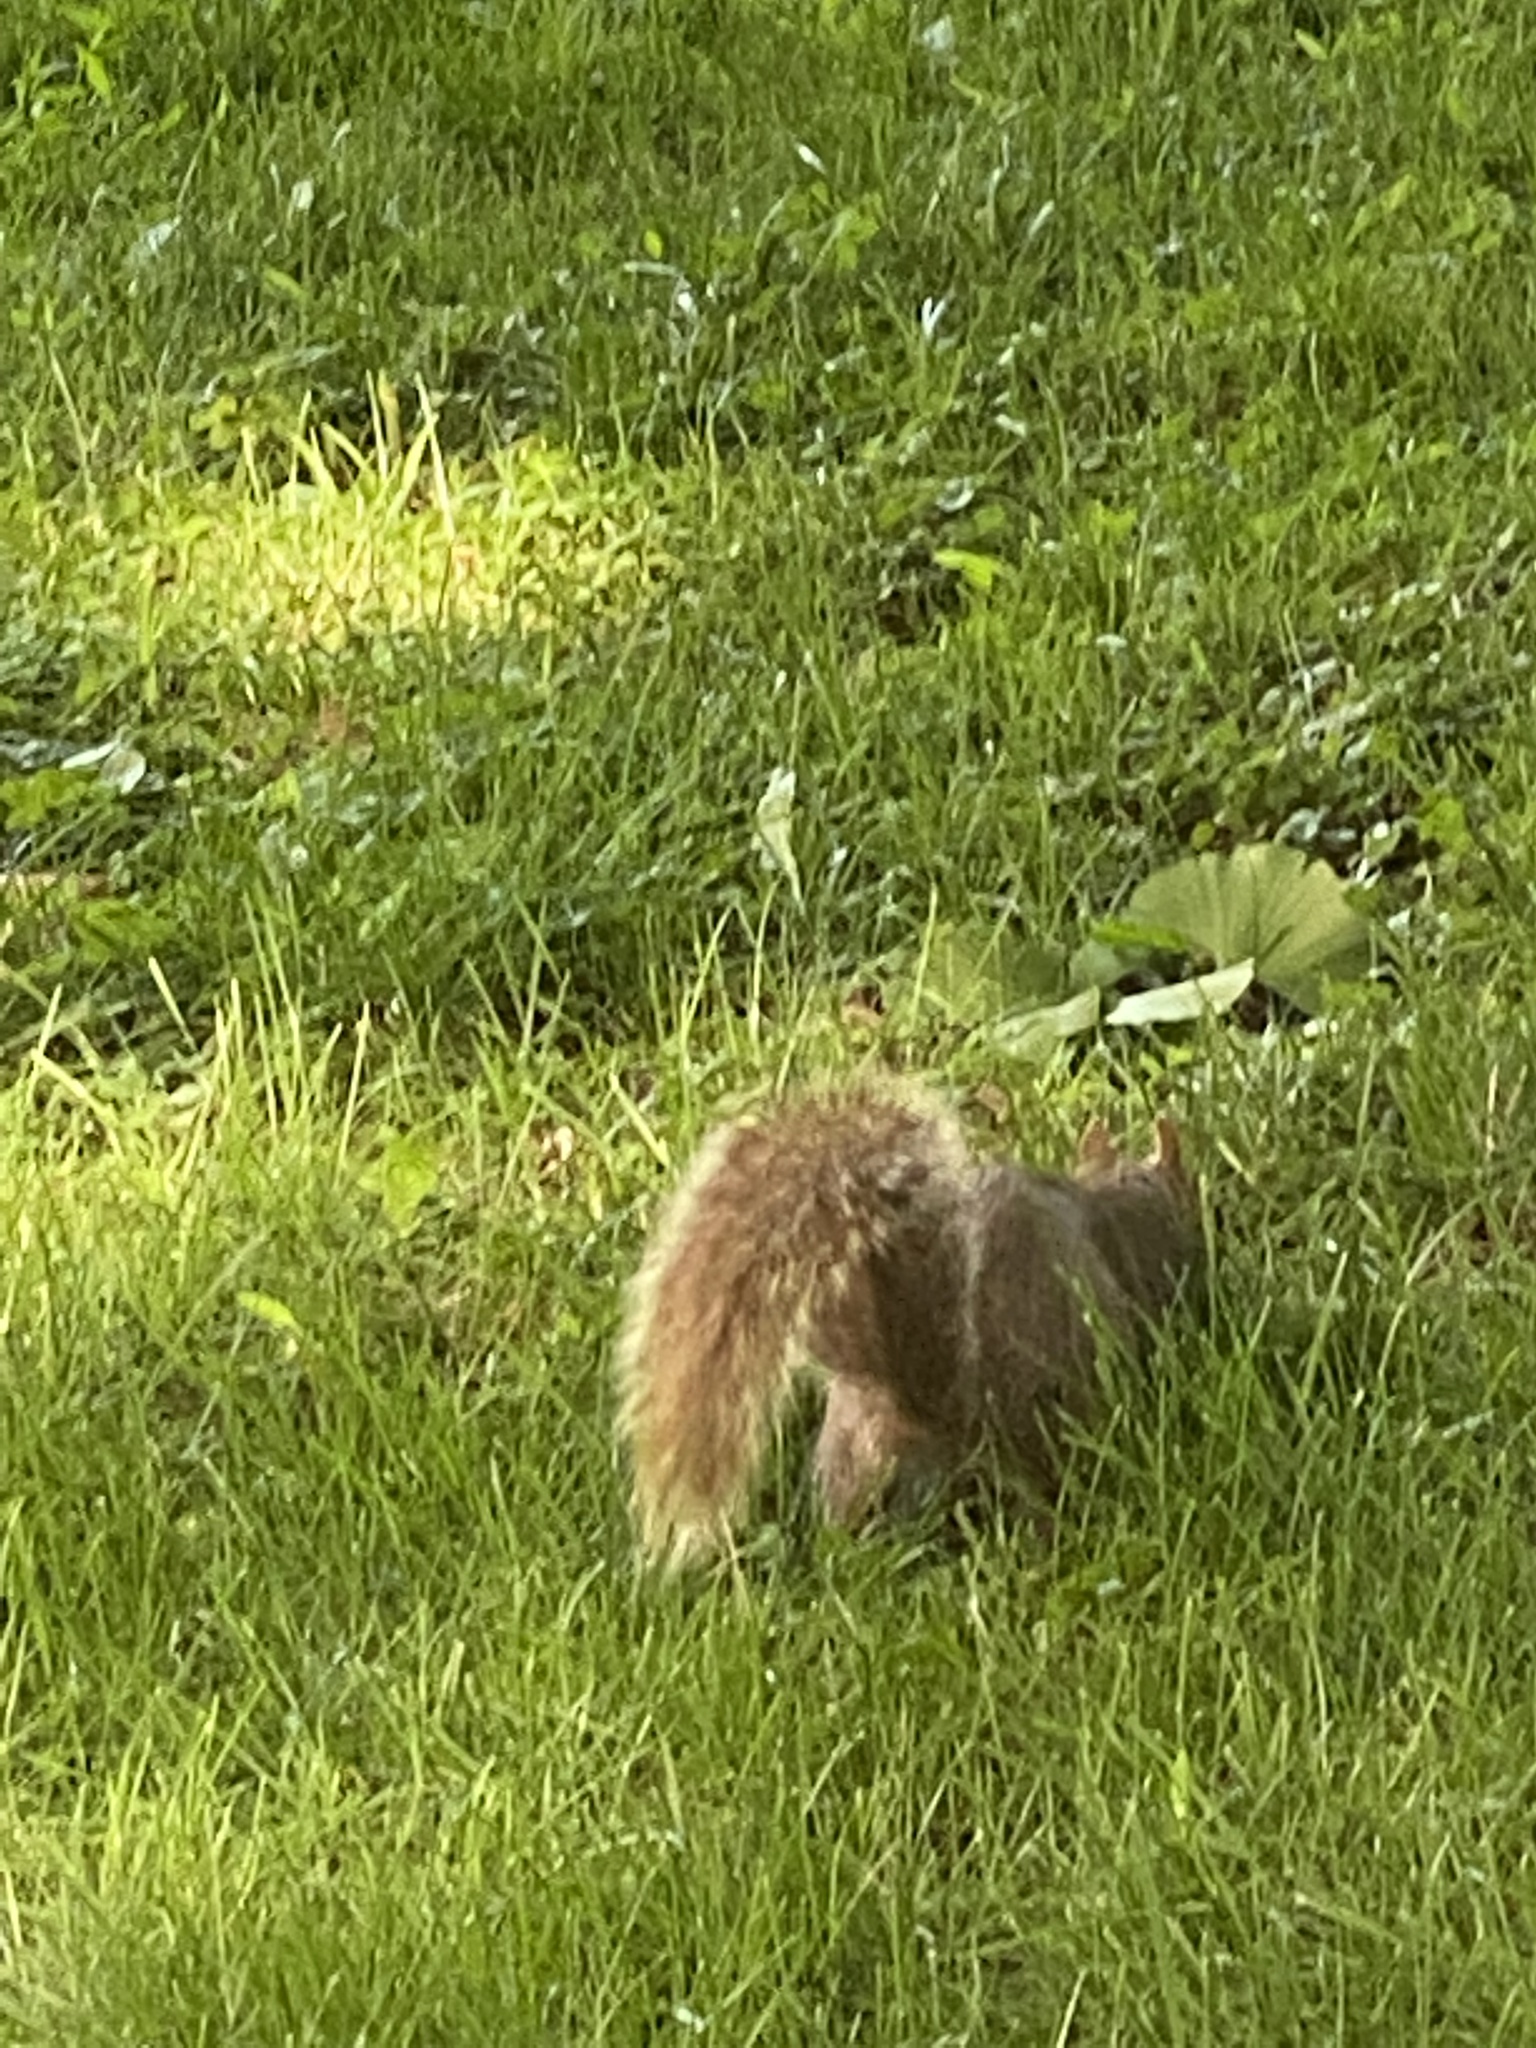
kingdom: Animalia
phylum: Chordata
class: Mammalia
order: Rodentia
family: Sciuridae
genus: Sciurus
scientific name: Sciurus carolinensis
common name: Eastern gray squirrel
